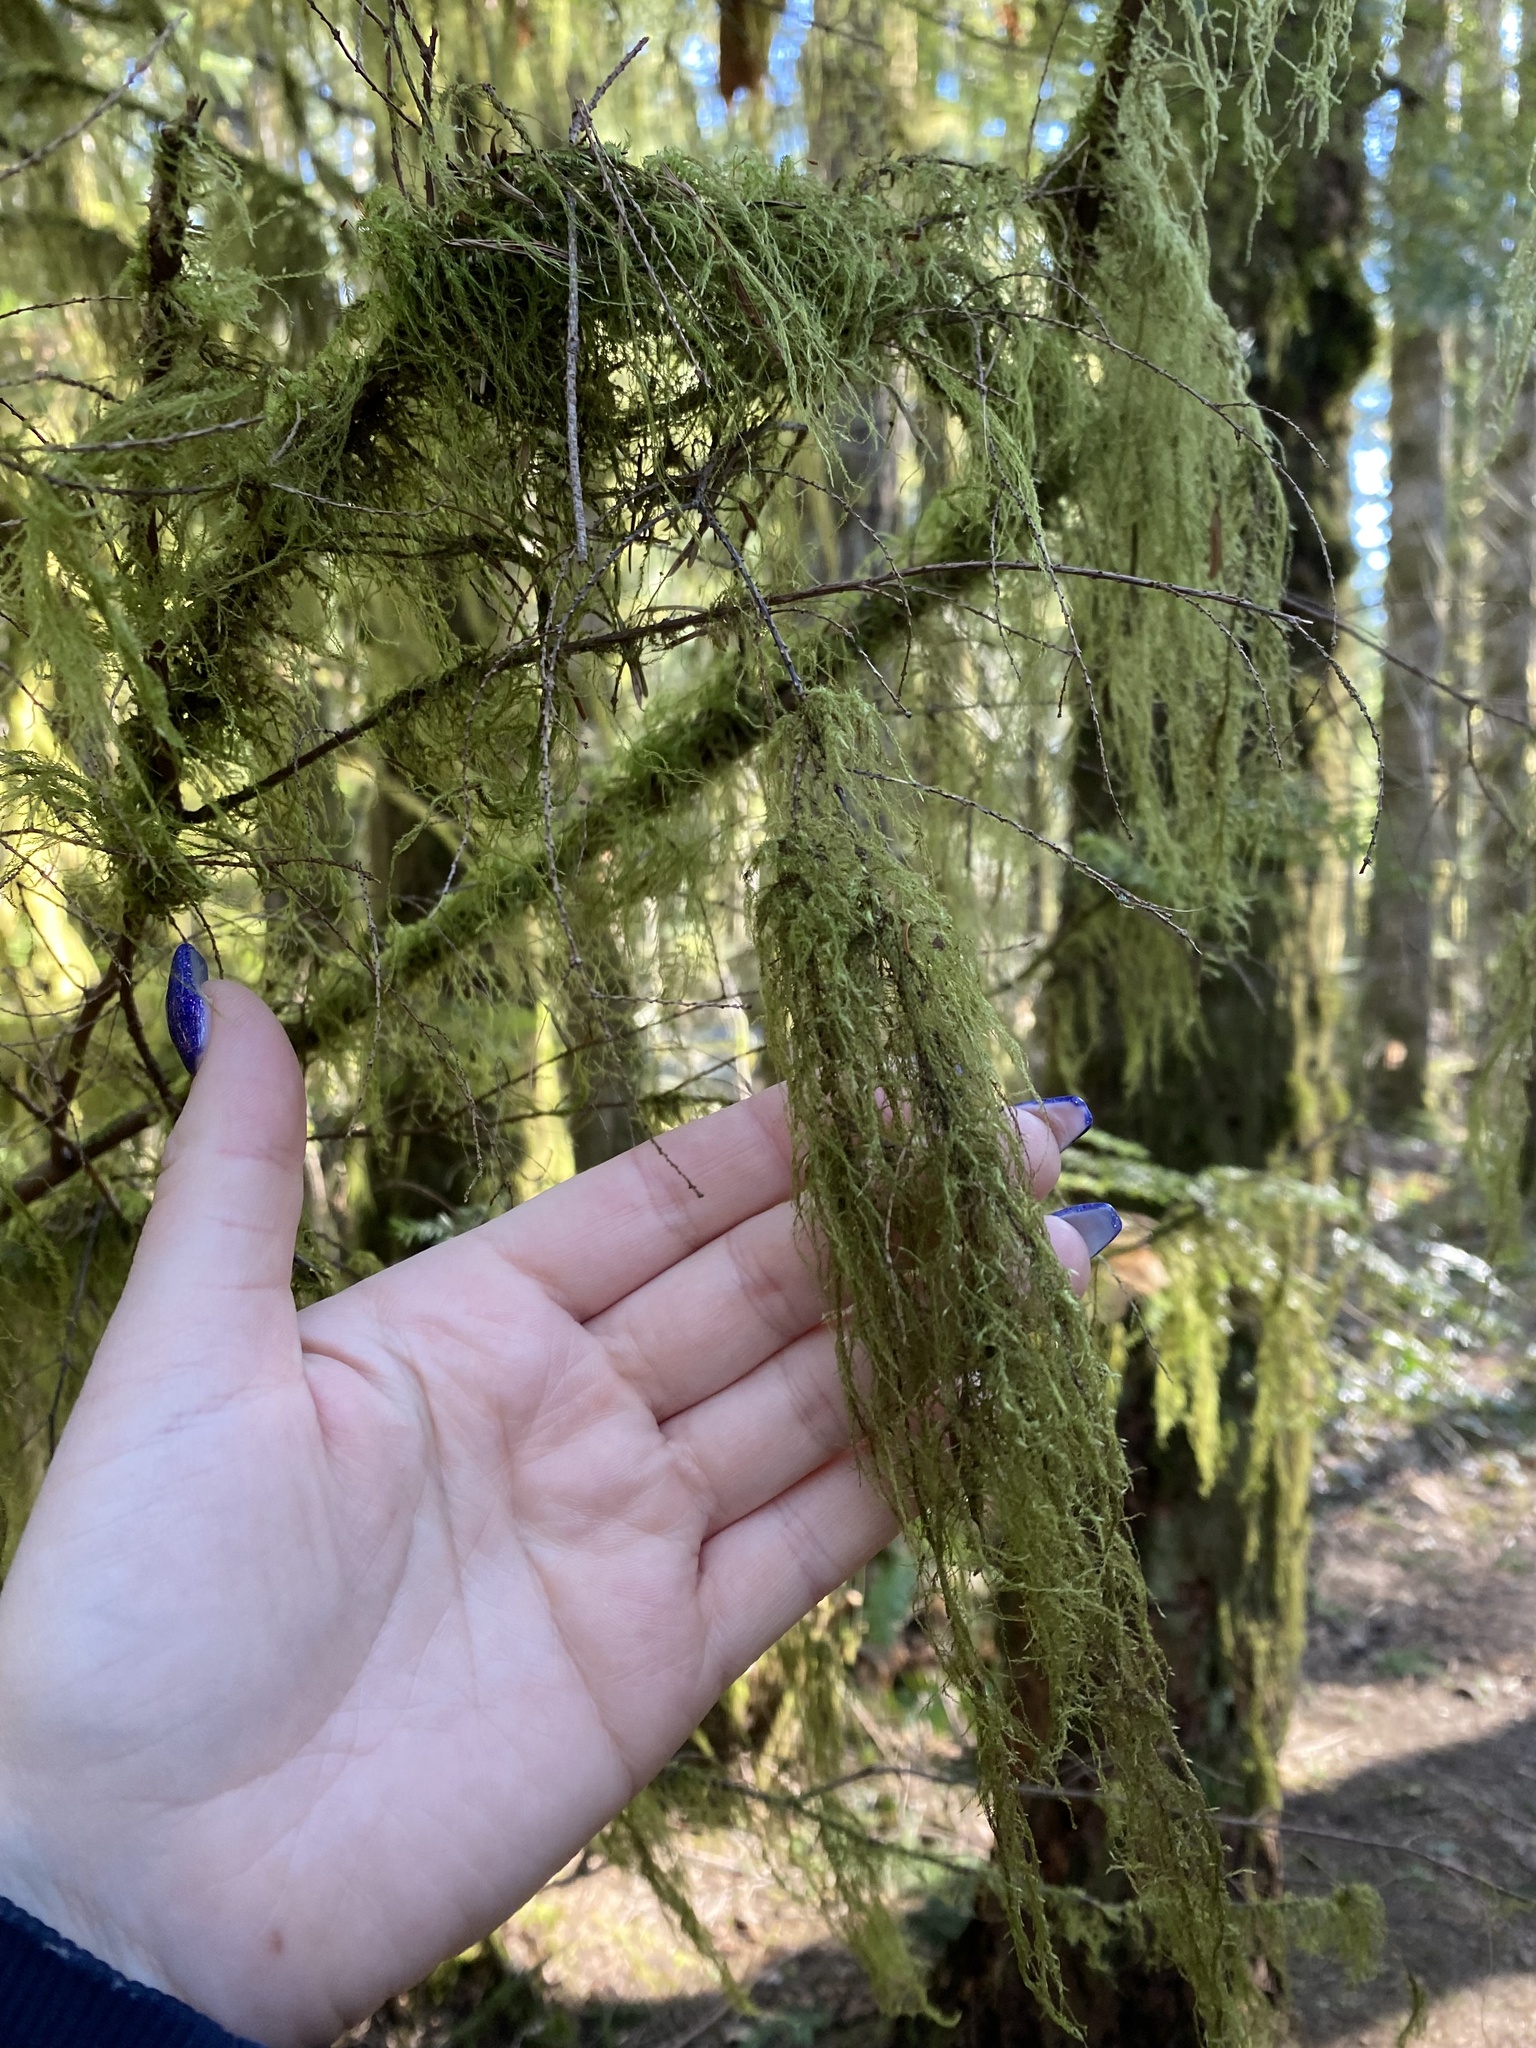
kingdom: Plantae
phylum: Bryophyta
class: Bryopsida
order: Hypnales
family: Lembophyllaceae
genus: Pseudisothecium
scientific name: Pseudisothecium stoloniferum
